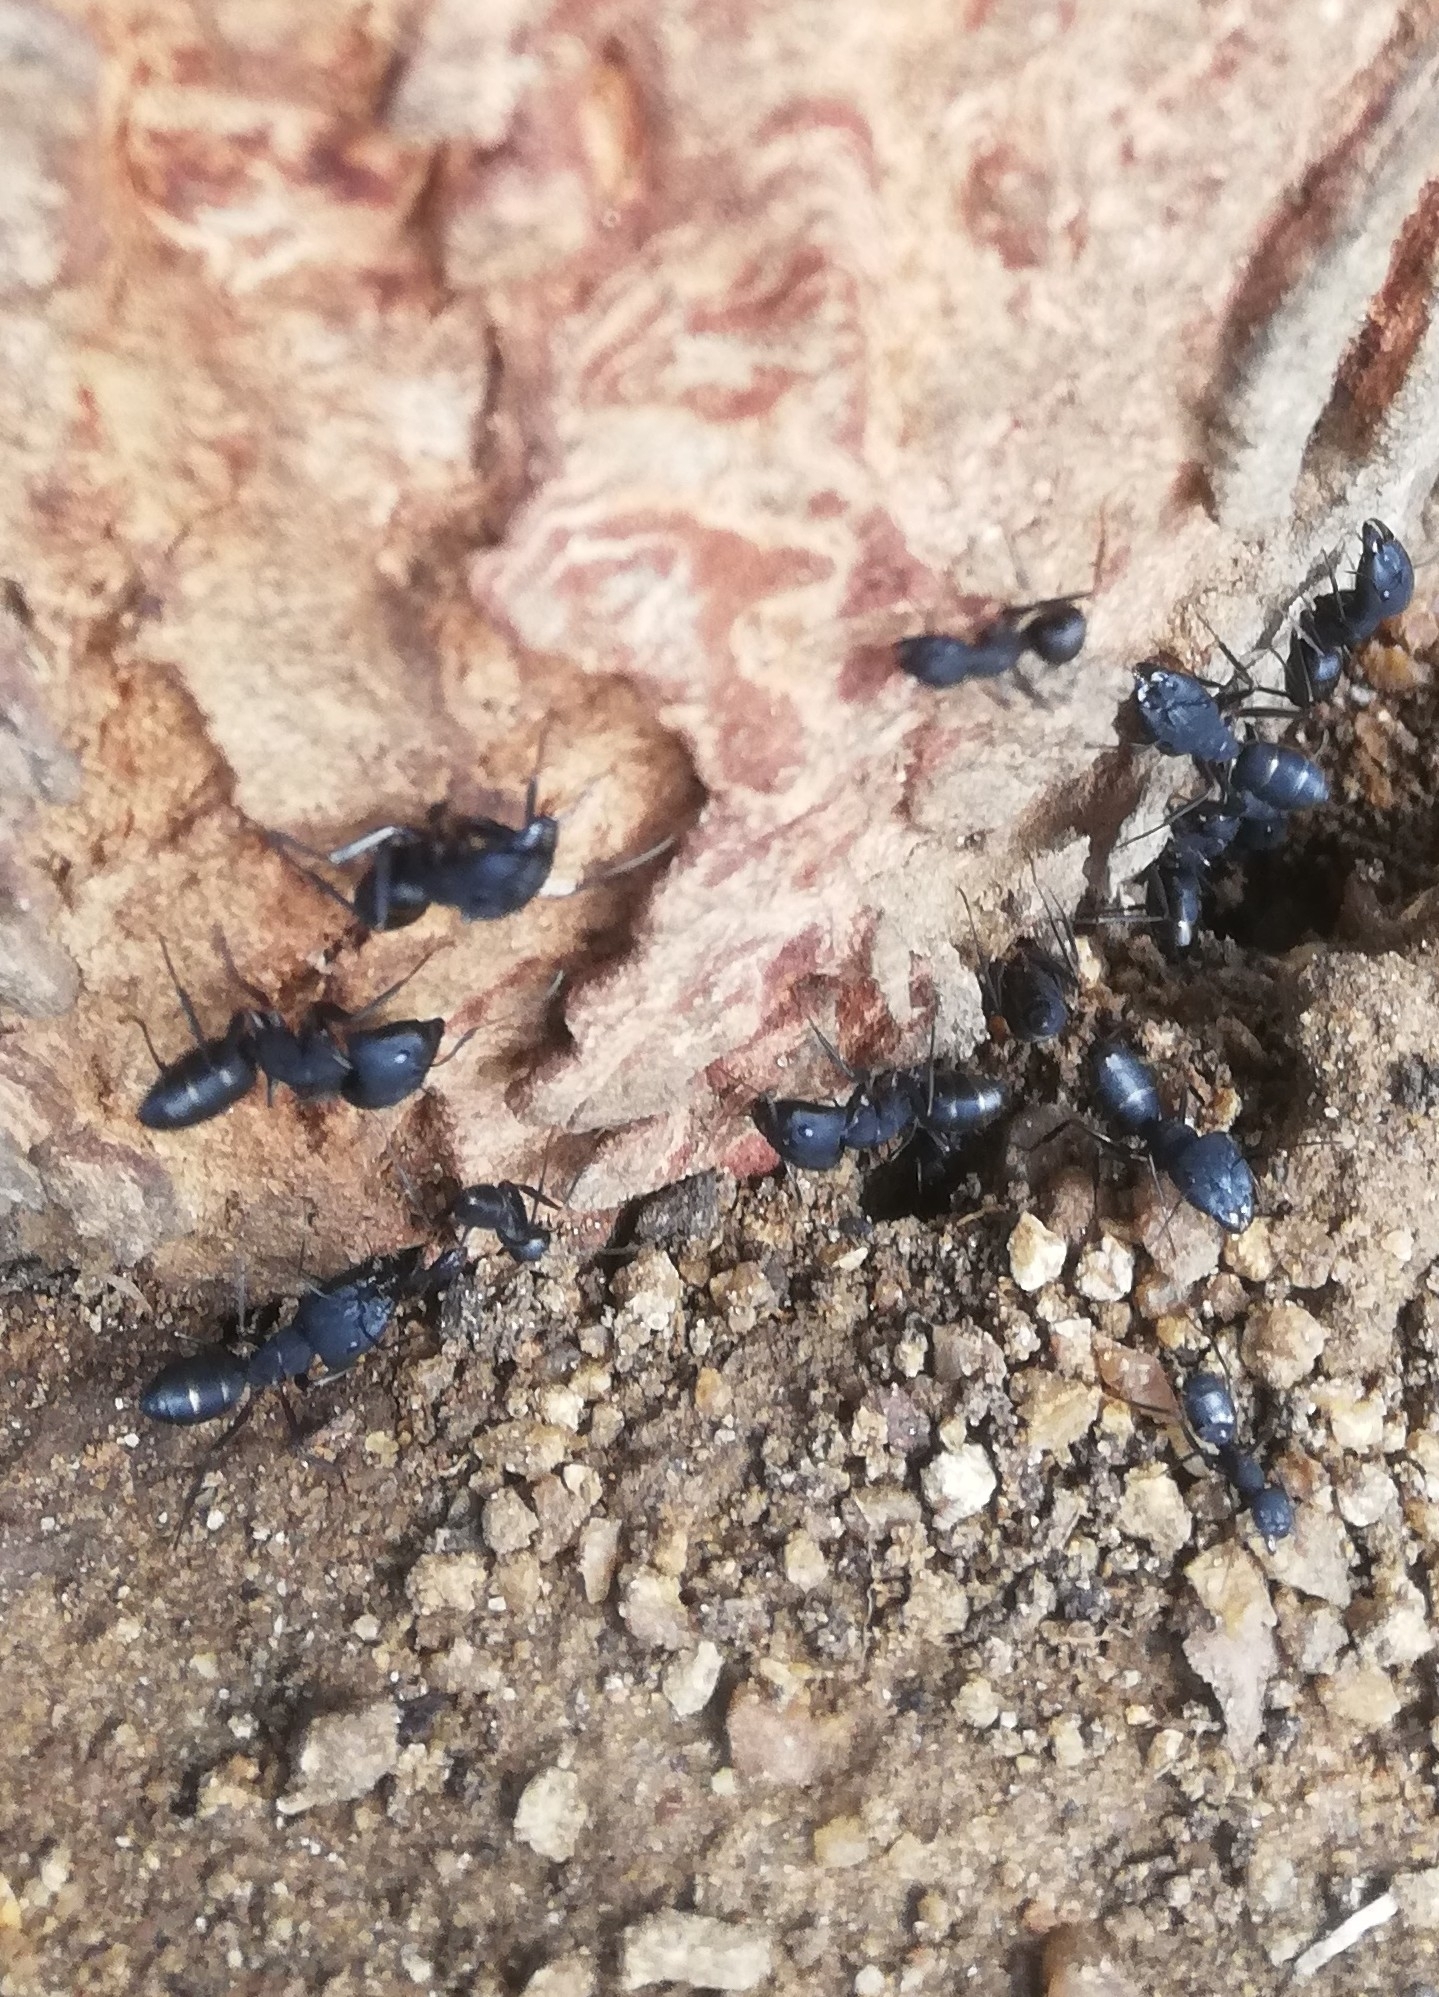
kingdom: Animalia
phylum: Arthropoda
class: Insecta
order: Hymenoptera
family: Formicidae
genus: Camponotus
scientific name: Camponotus compressus
